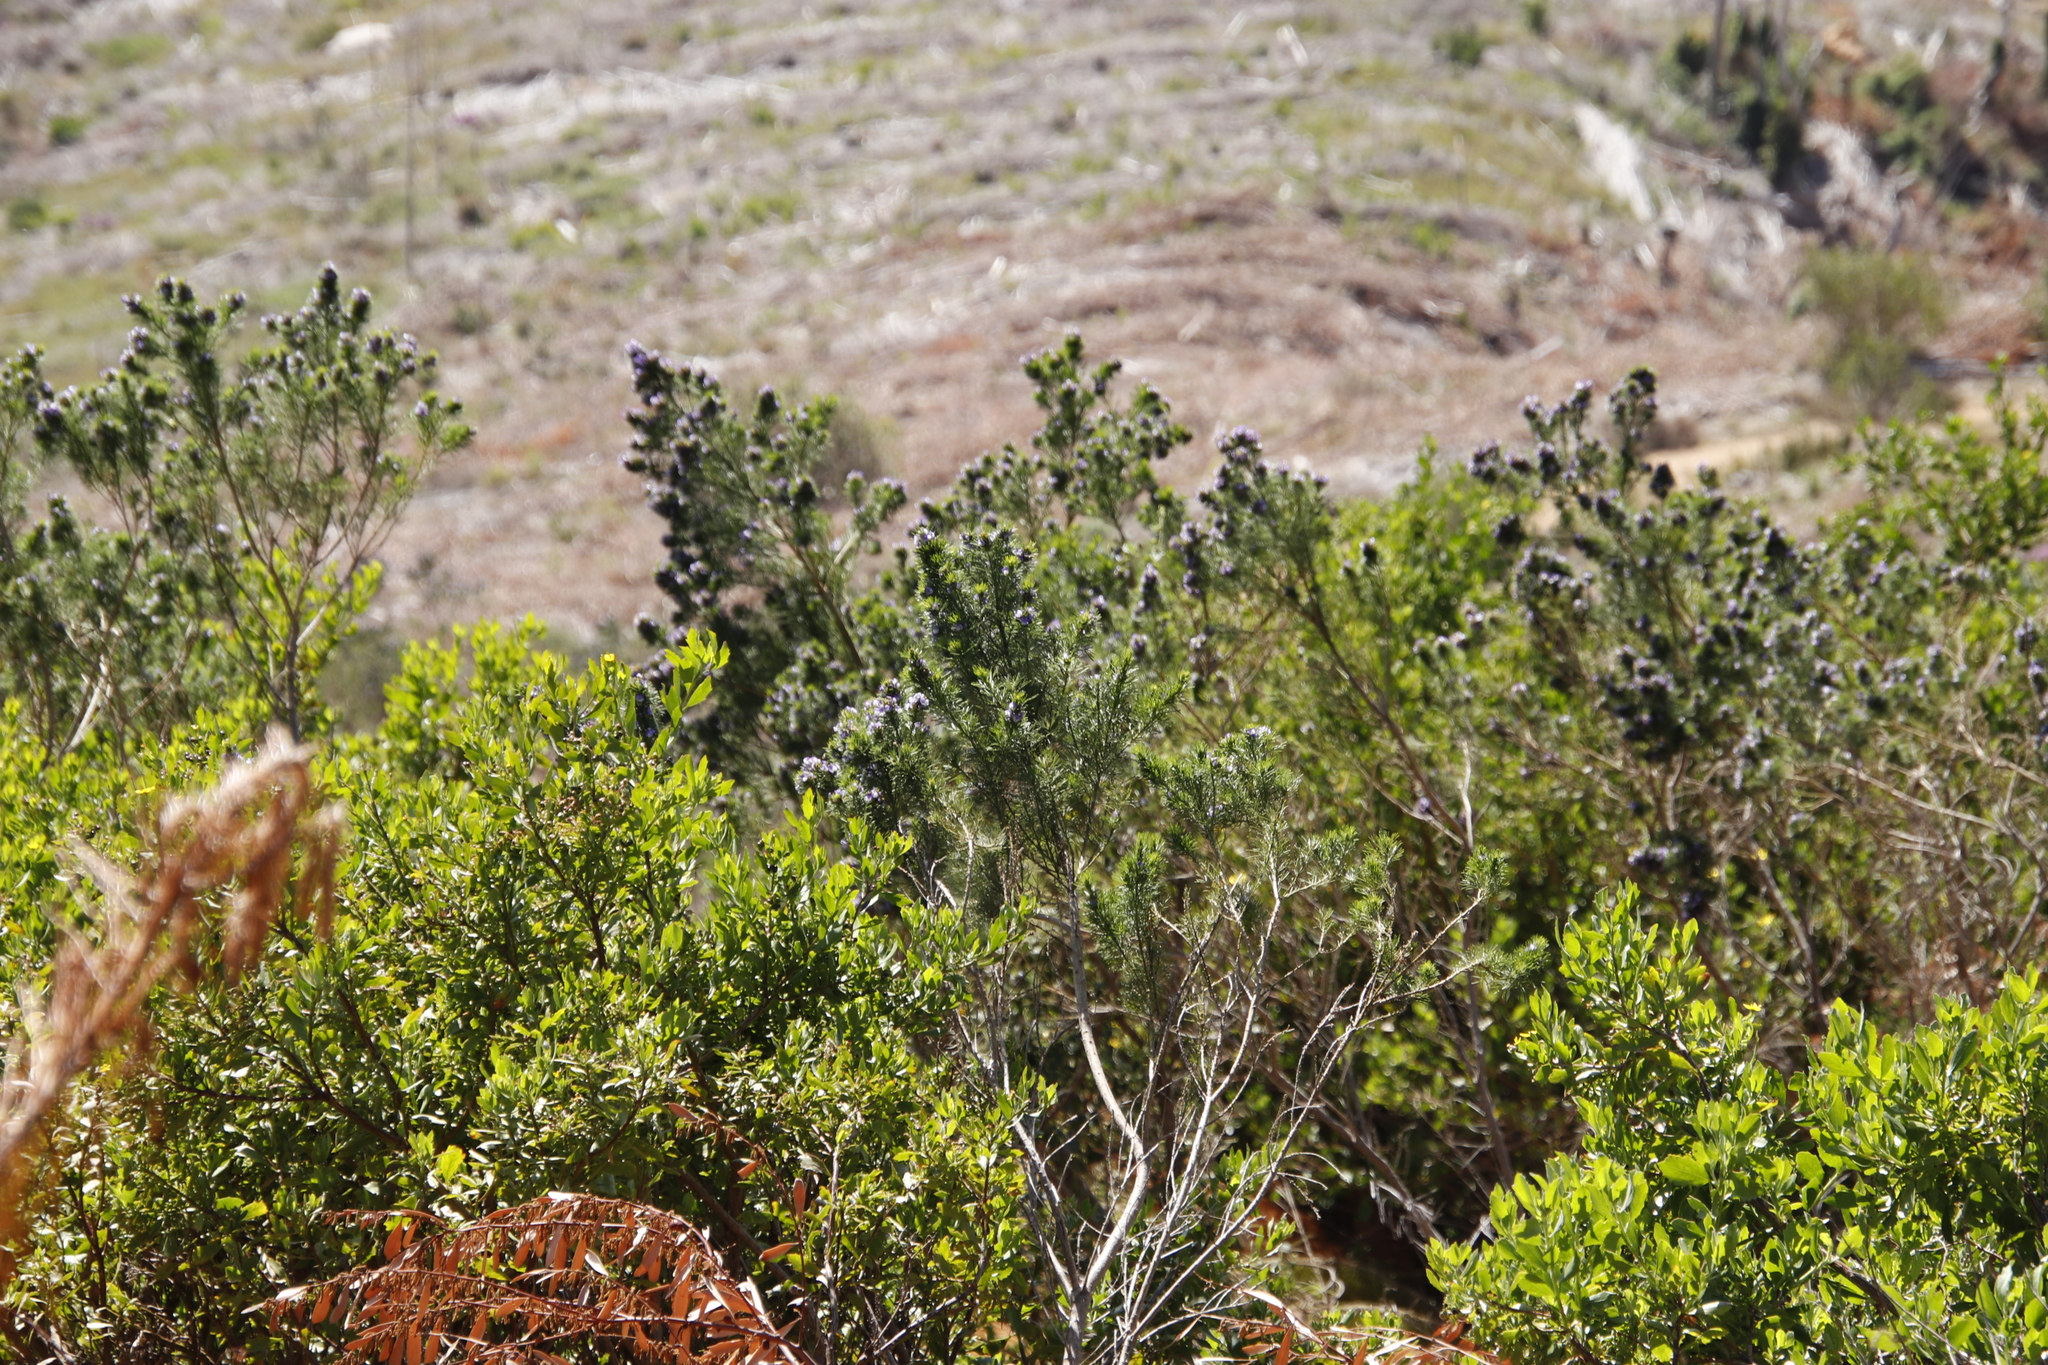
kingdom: Plantae
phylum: Tracheophyta
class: Magnoliopsida
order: Fabales
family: Fabaceae
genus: Psoralea
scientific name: Psoralea pinnata
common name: African scurfpea
